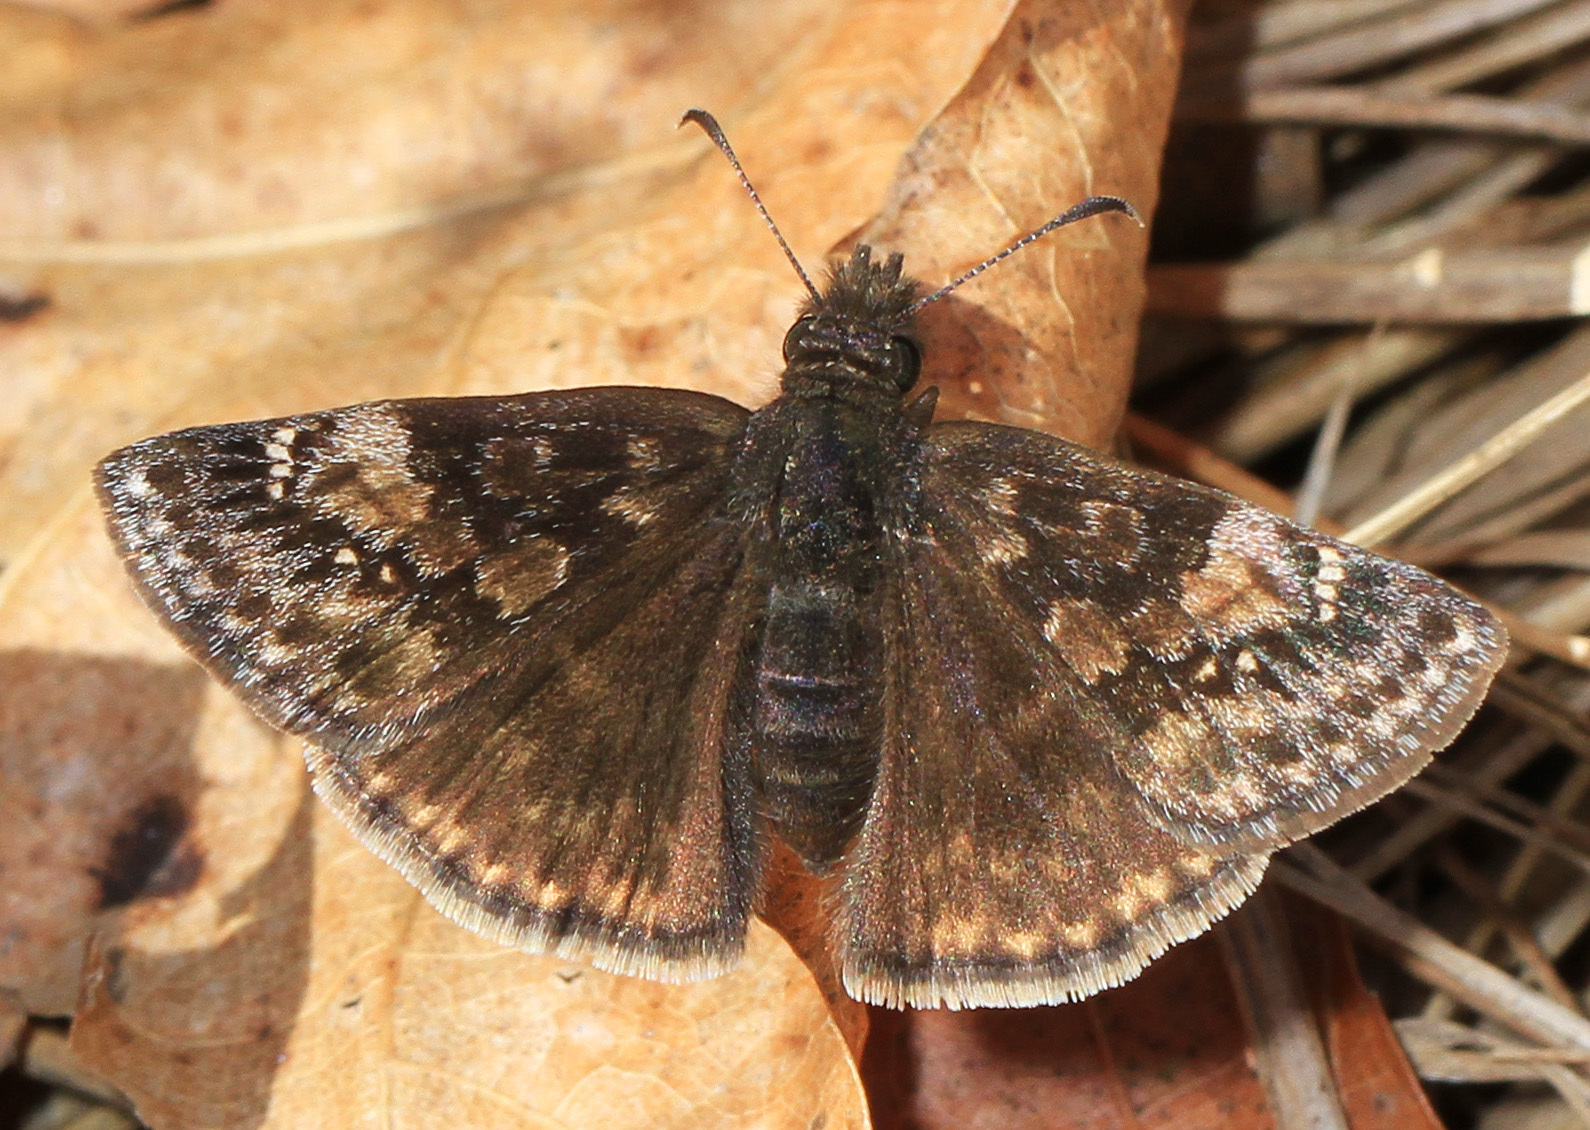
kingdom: Animalia
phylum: Arthropoda
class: Insecta
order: Lepidoptera
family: Hesperiidae
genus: Erynnis
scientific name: Erynnis baptisiae
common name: Wild indigo duskywing
